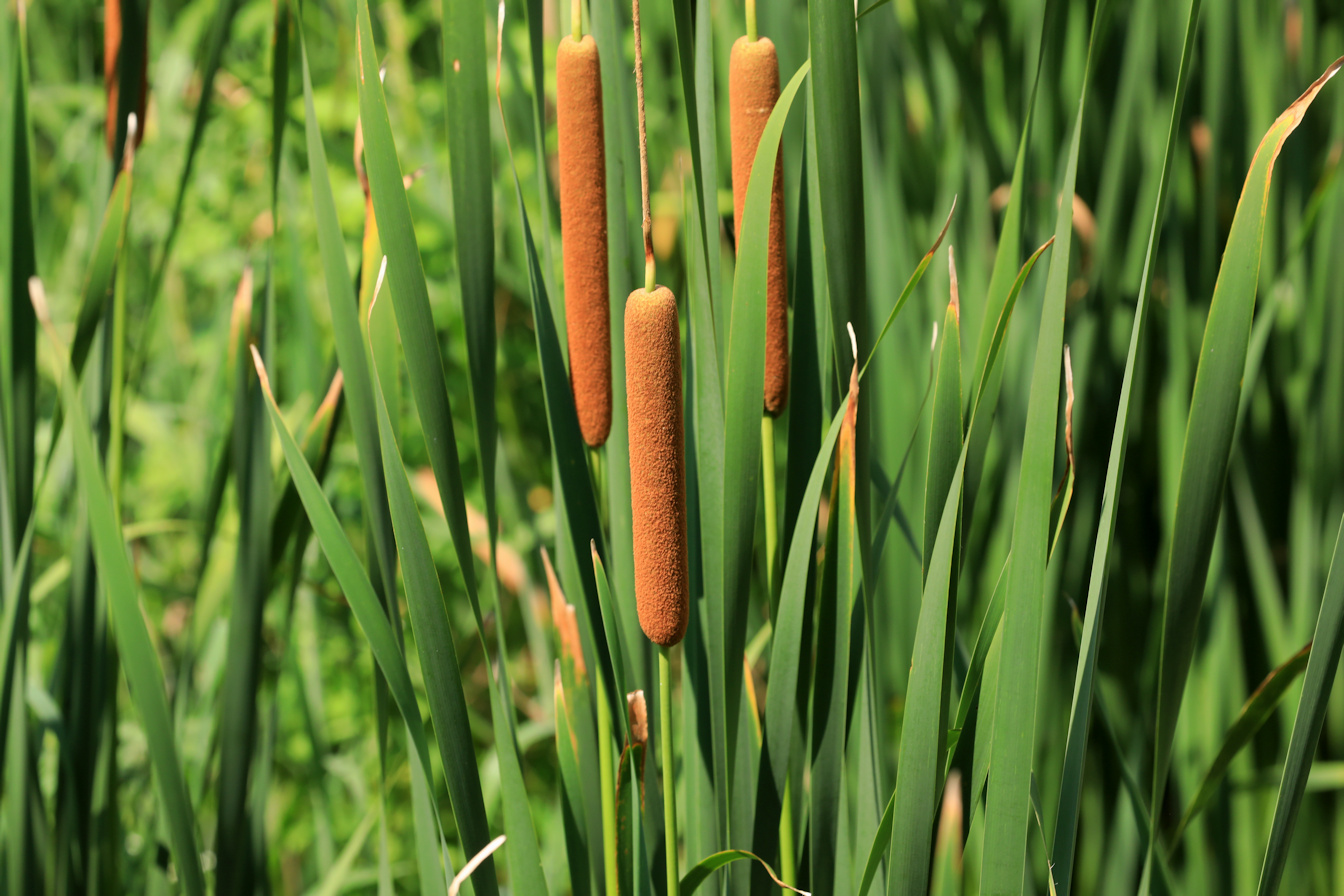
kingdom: Plantae
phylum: Tracheophyta
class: Liliopsida
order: Poales
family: Typhaceae
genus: Typha
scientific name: Typha capensis
